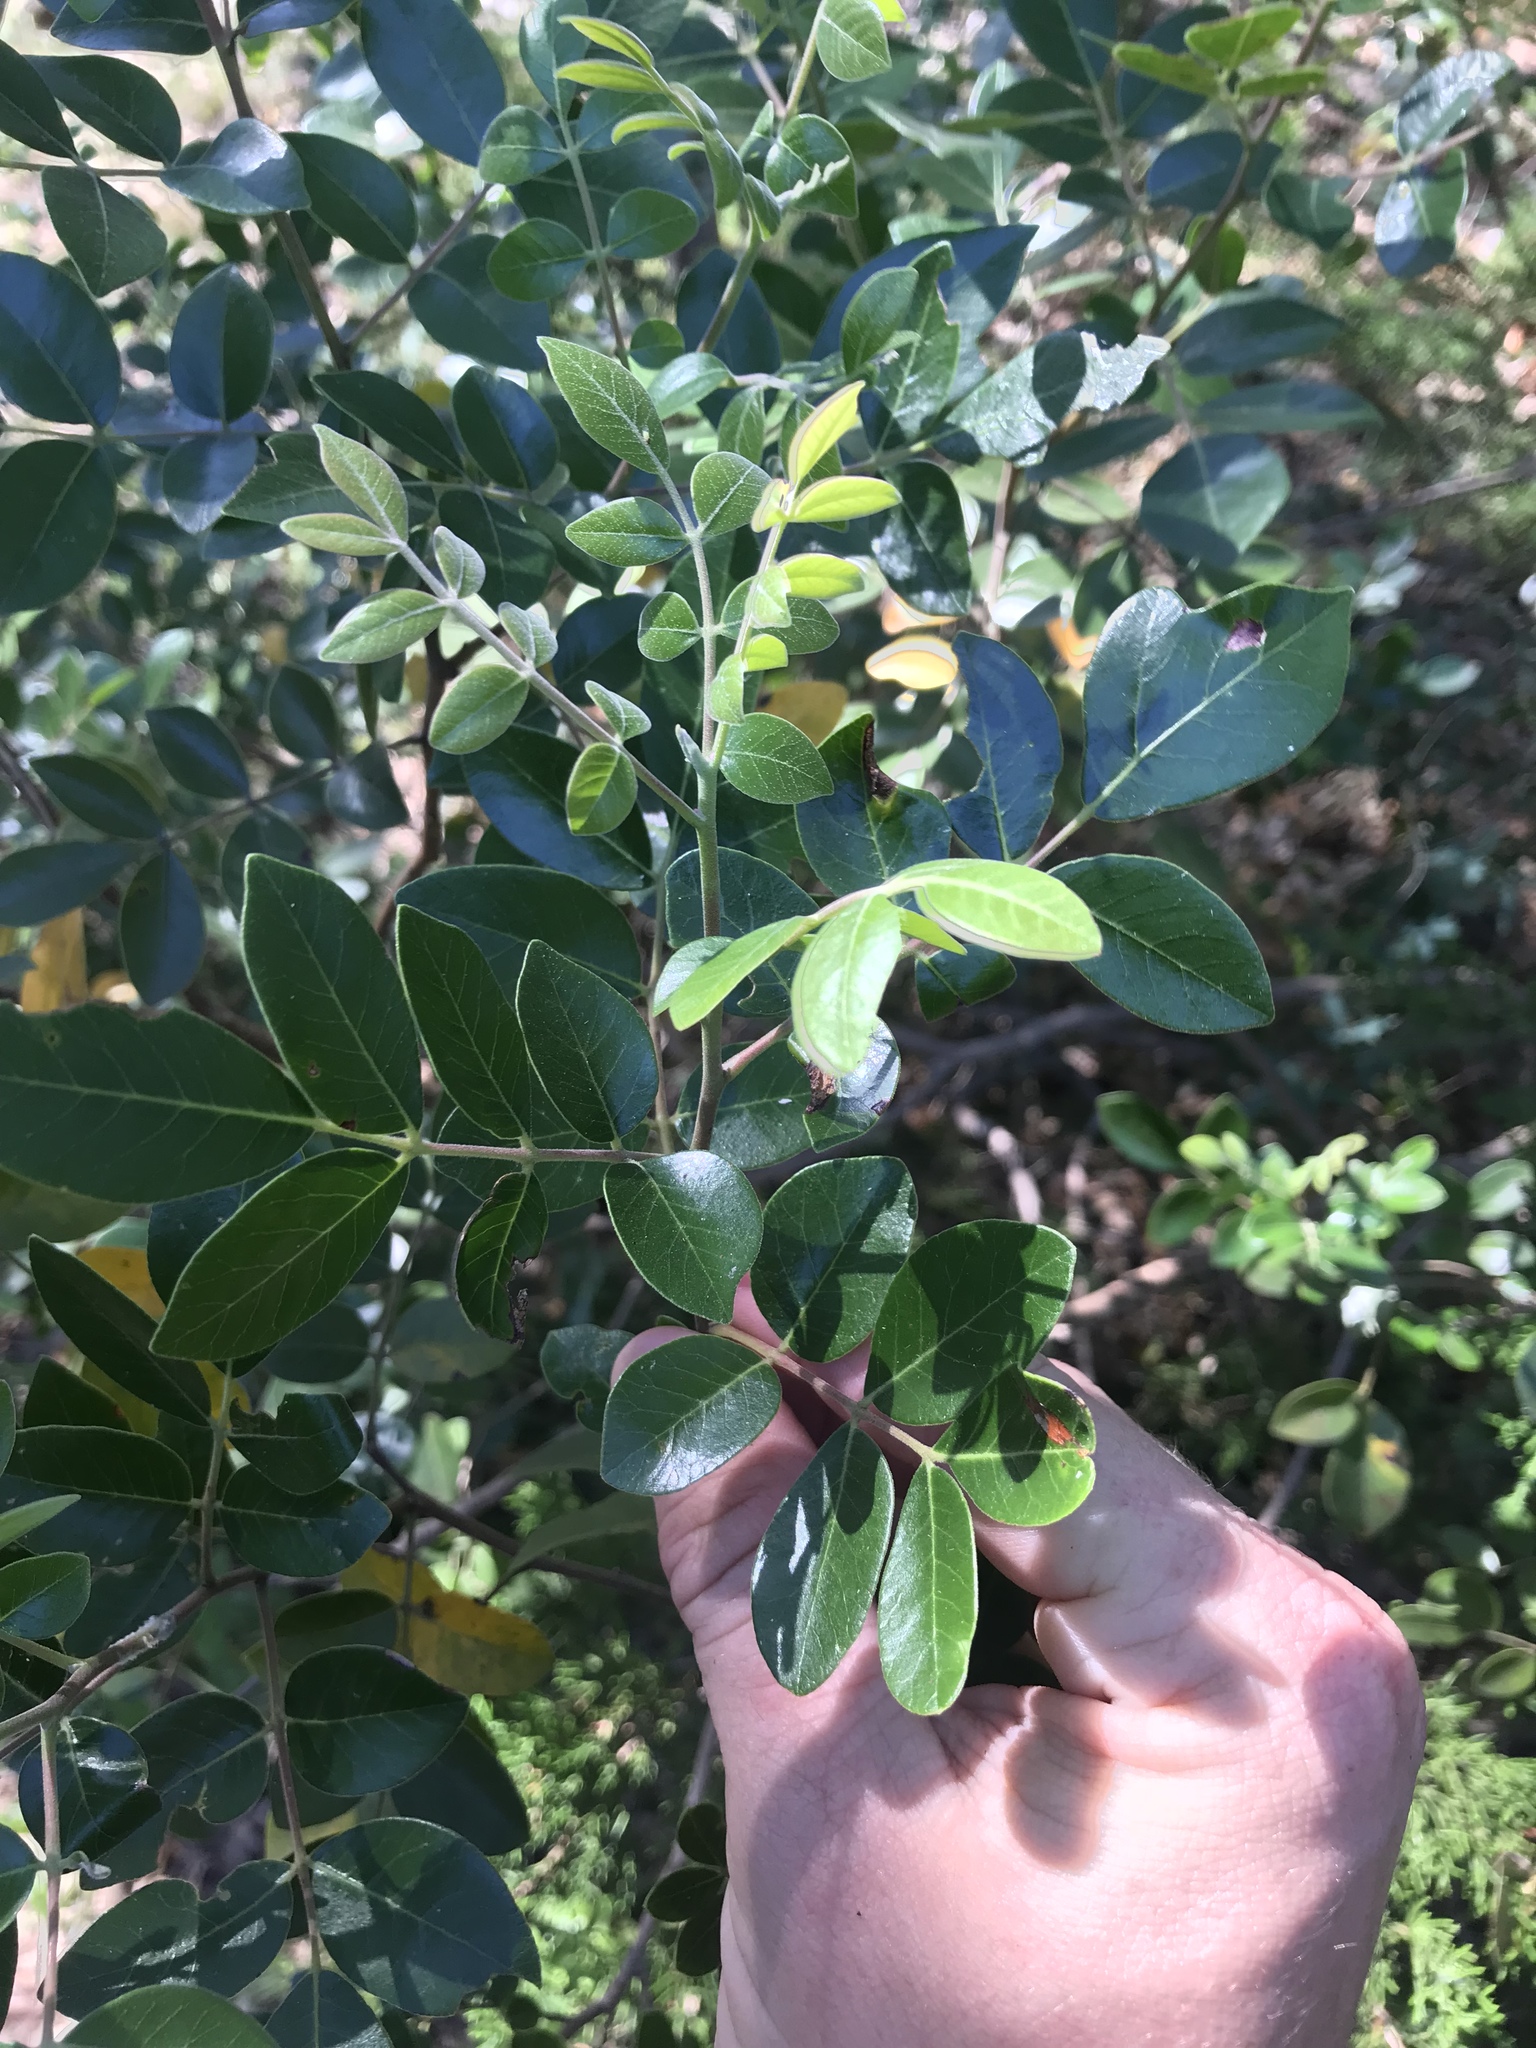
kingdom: Plantae
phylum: Tracheophyta
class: Magnoliopsida
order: Sapindales
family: Anacardiaceae
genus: Rhus
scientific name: Rhus virens
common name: Evergreen sumac
